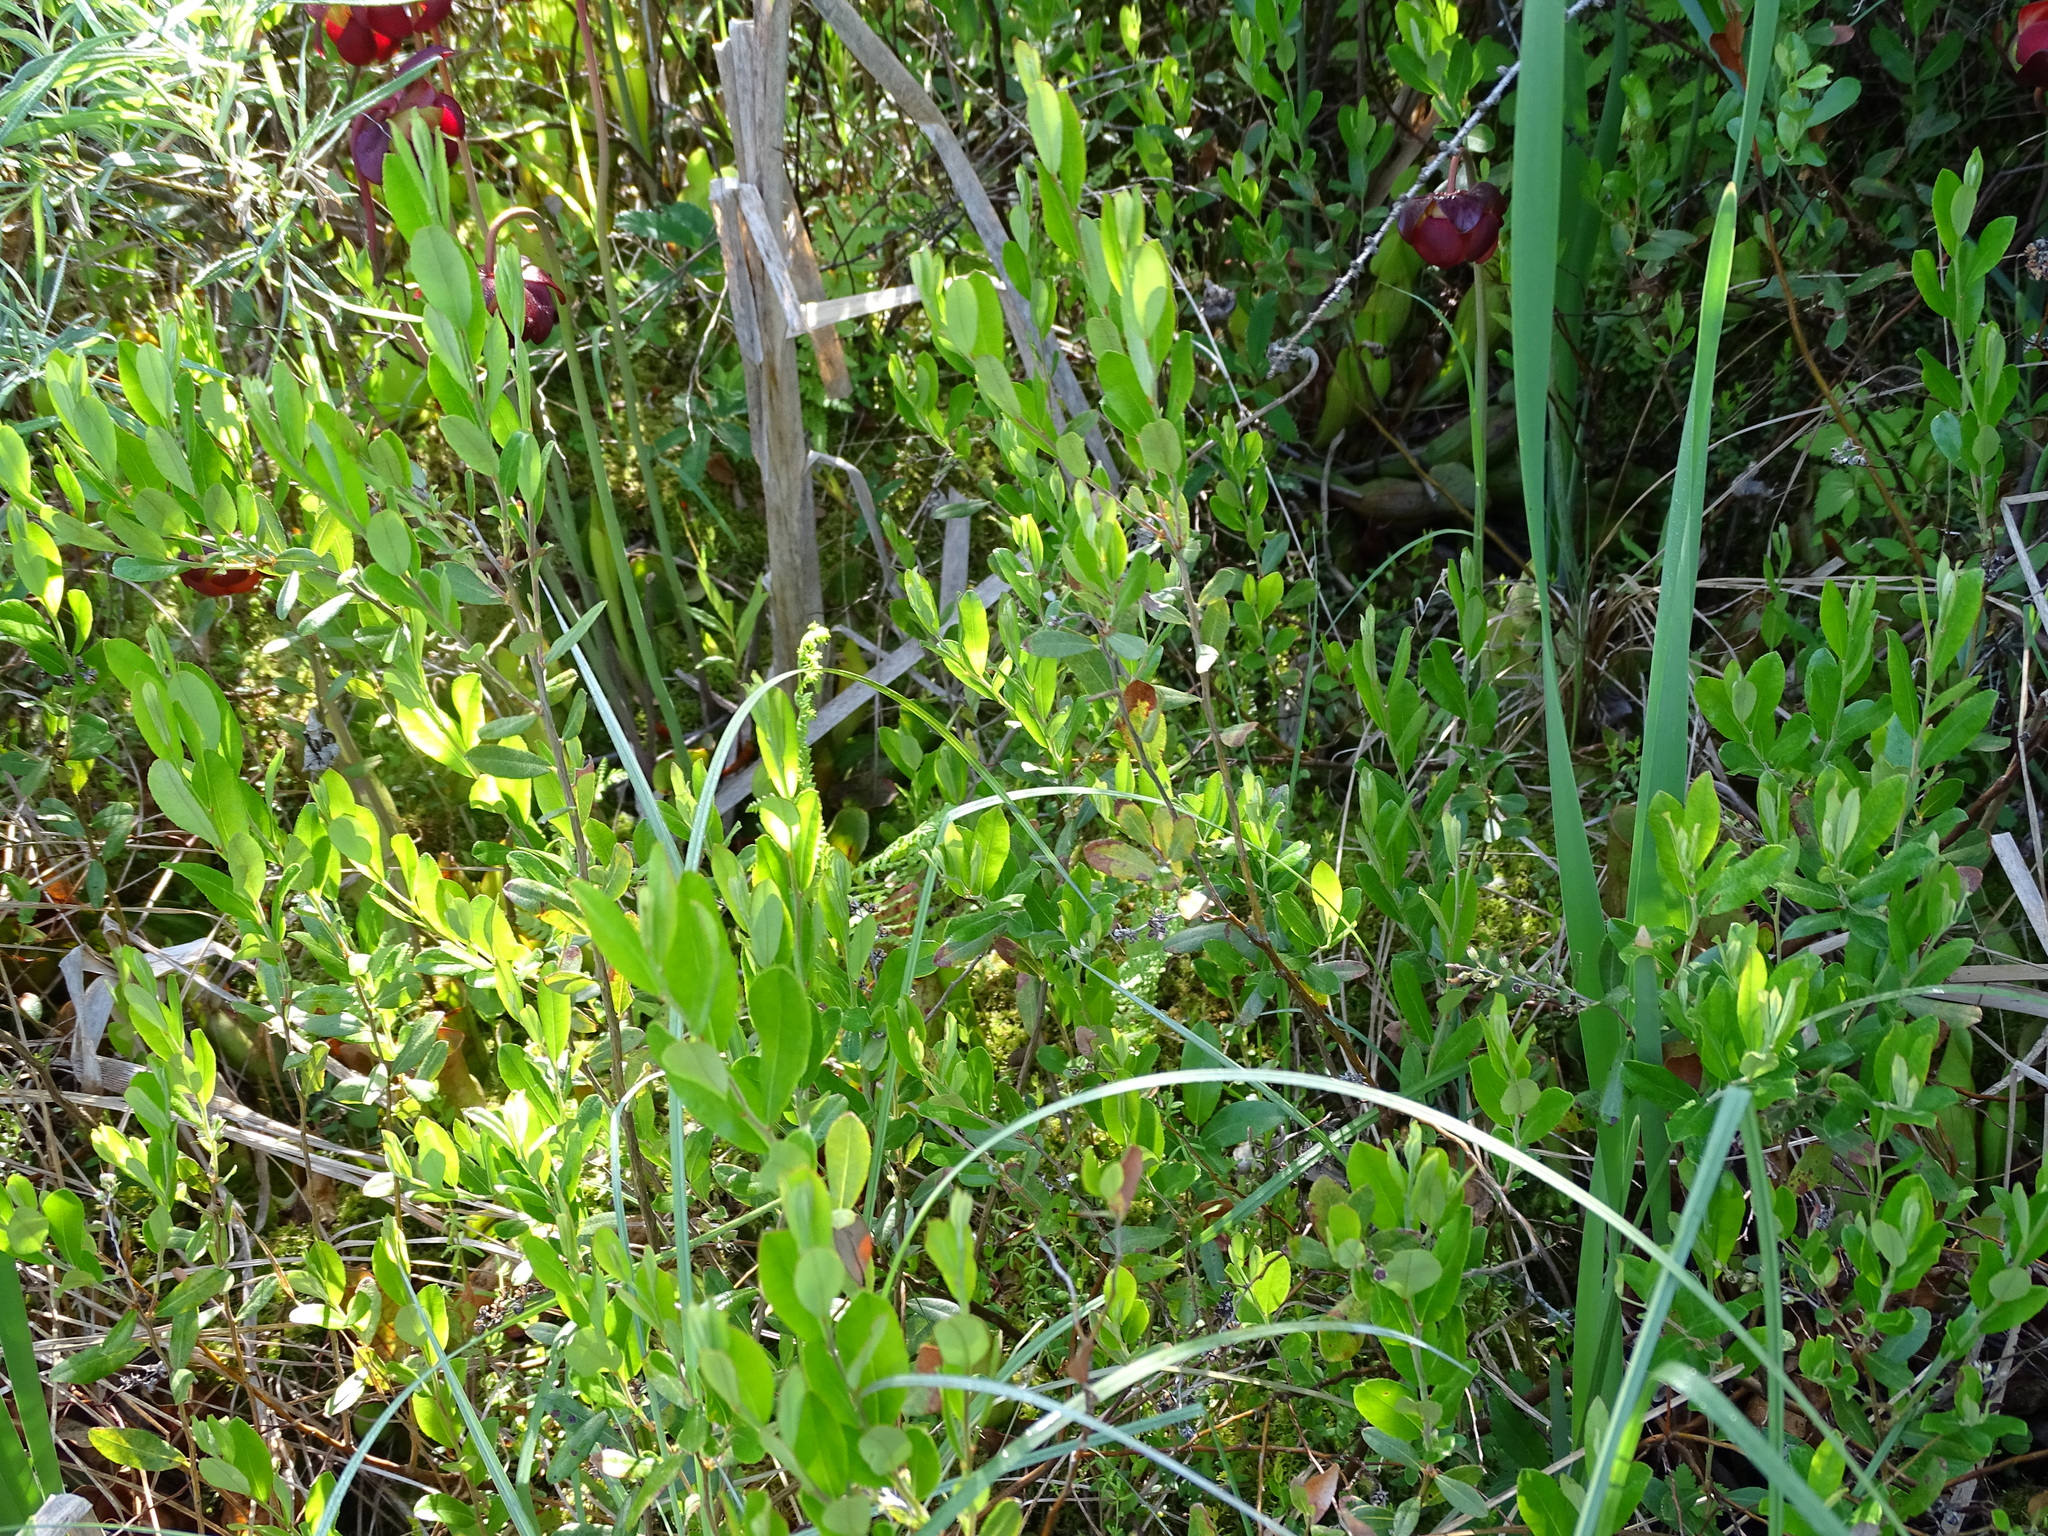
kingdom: Plantae
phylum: Tracheophyta
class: Magnoliopsida
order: Ericales
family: Ericaceae
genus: Chamaedaphne
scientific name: Chamaedaphne calyculata
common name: Leatherleaf
